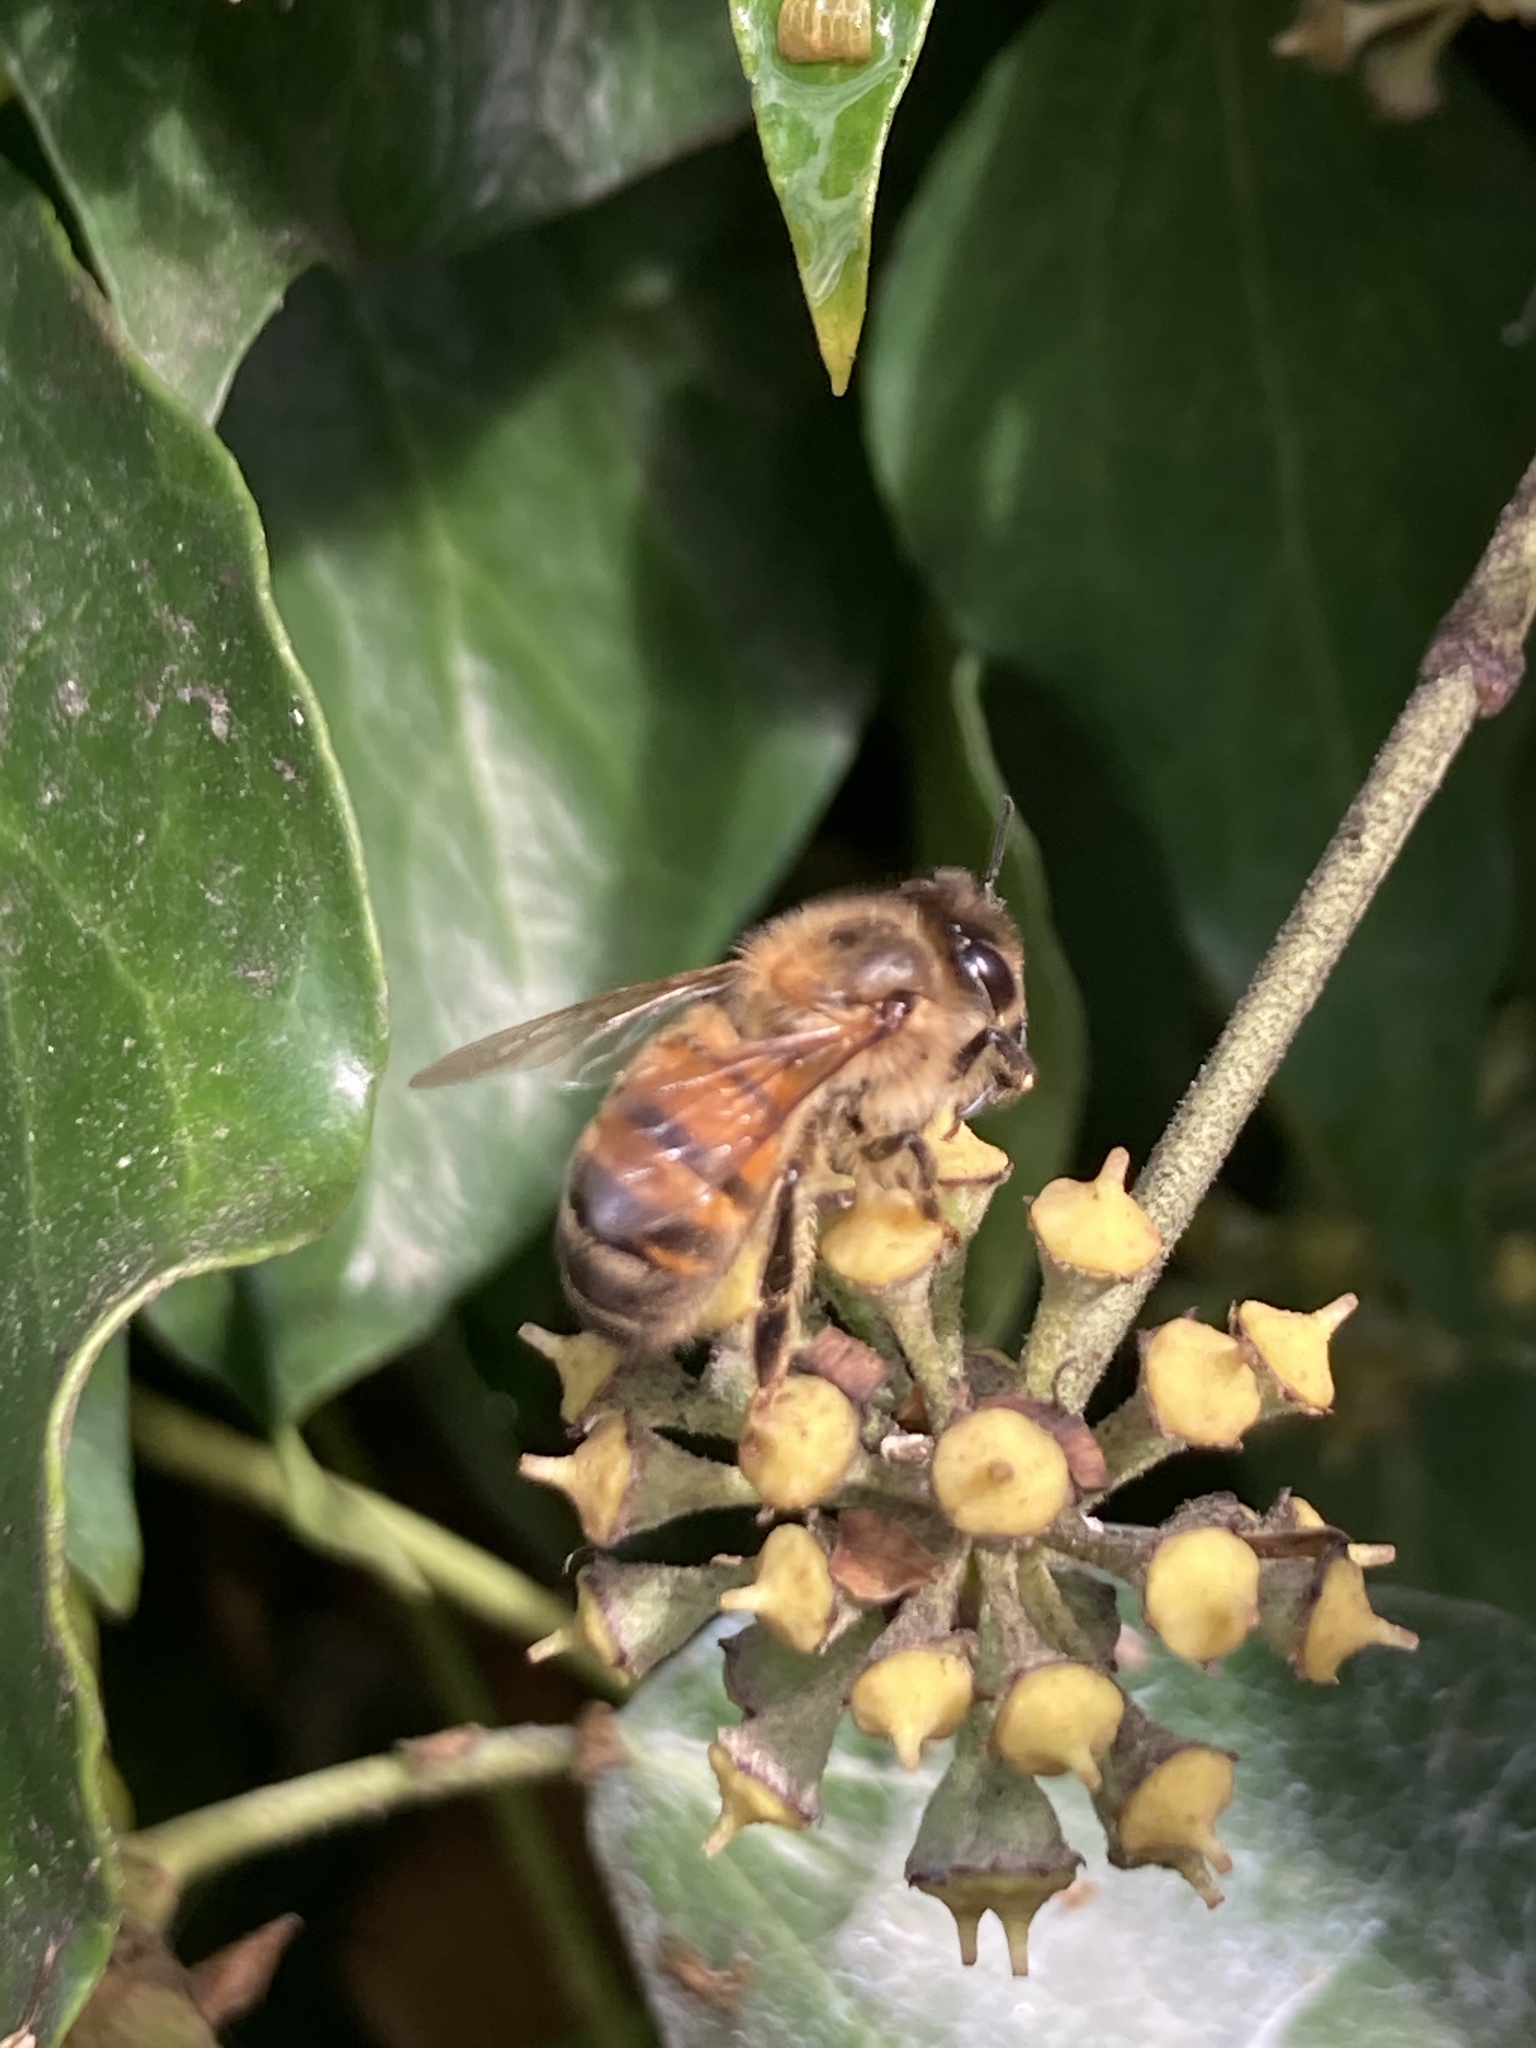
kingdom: Animalia
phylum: Arthropoda
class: Insecta
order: Hymenoptera
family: Apidae
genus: Apis
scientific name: Apis mellifera
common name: Honey bee
